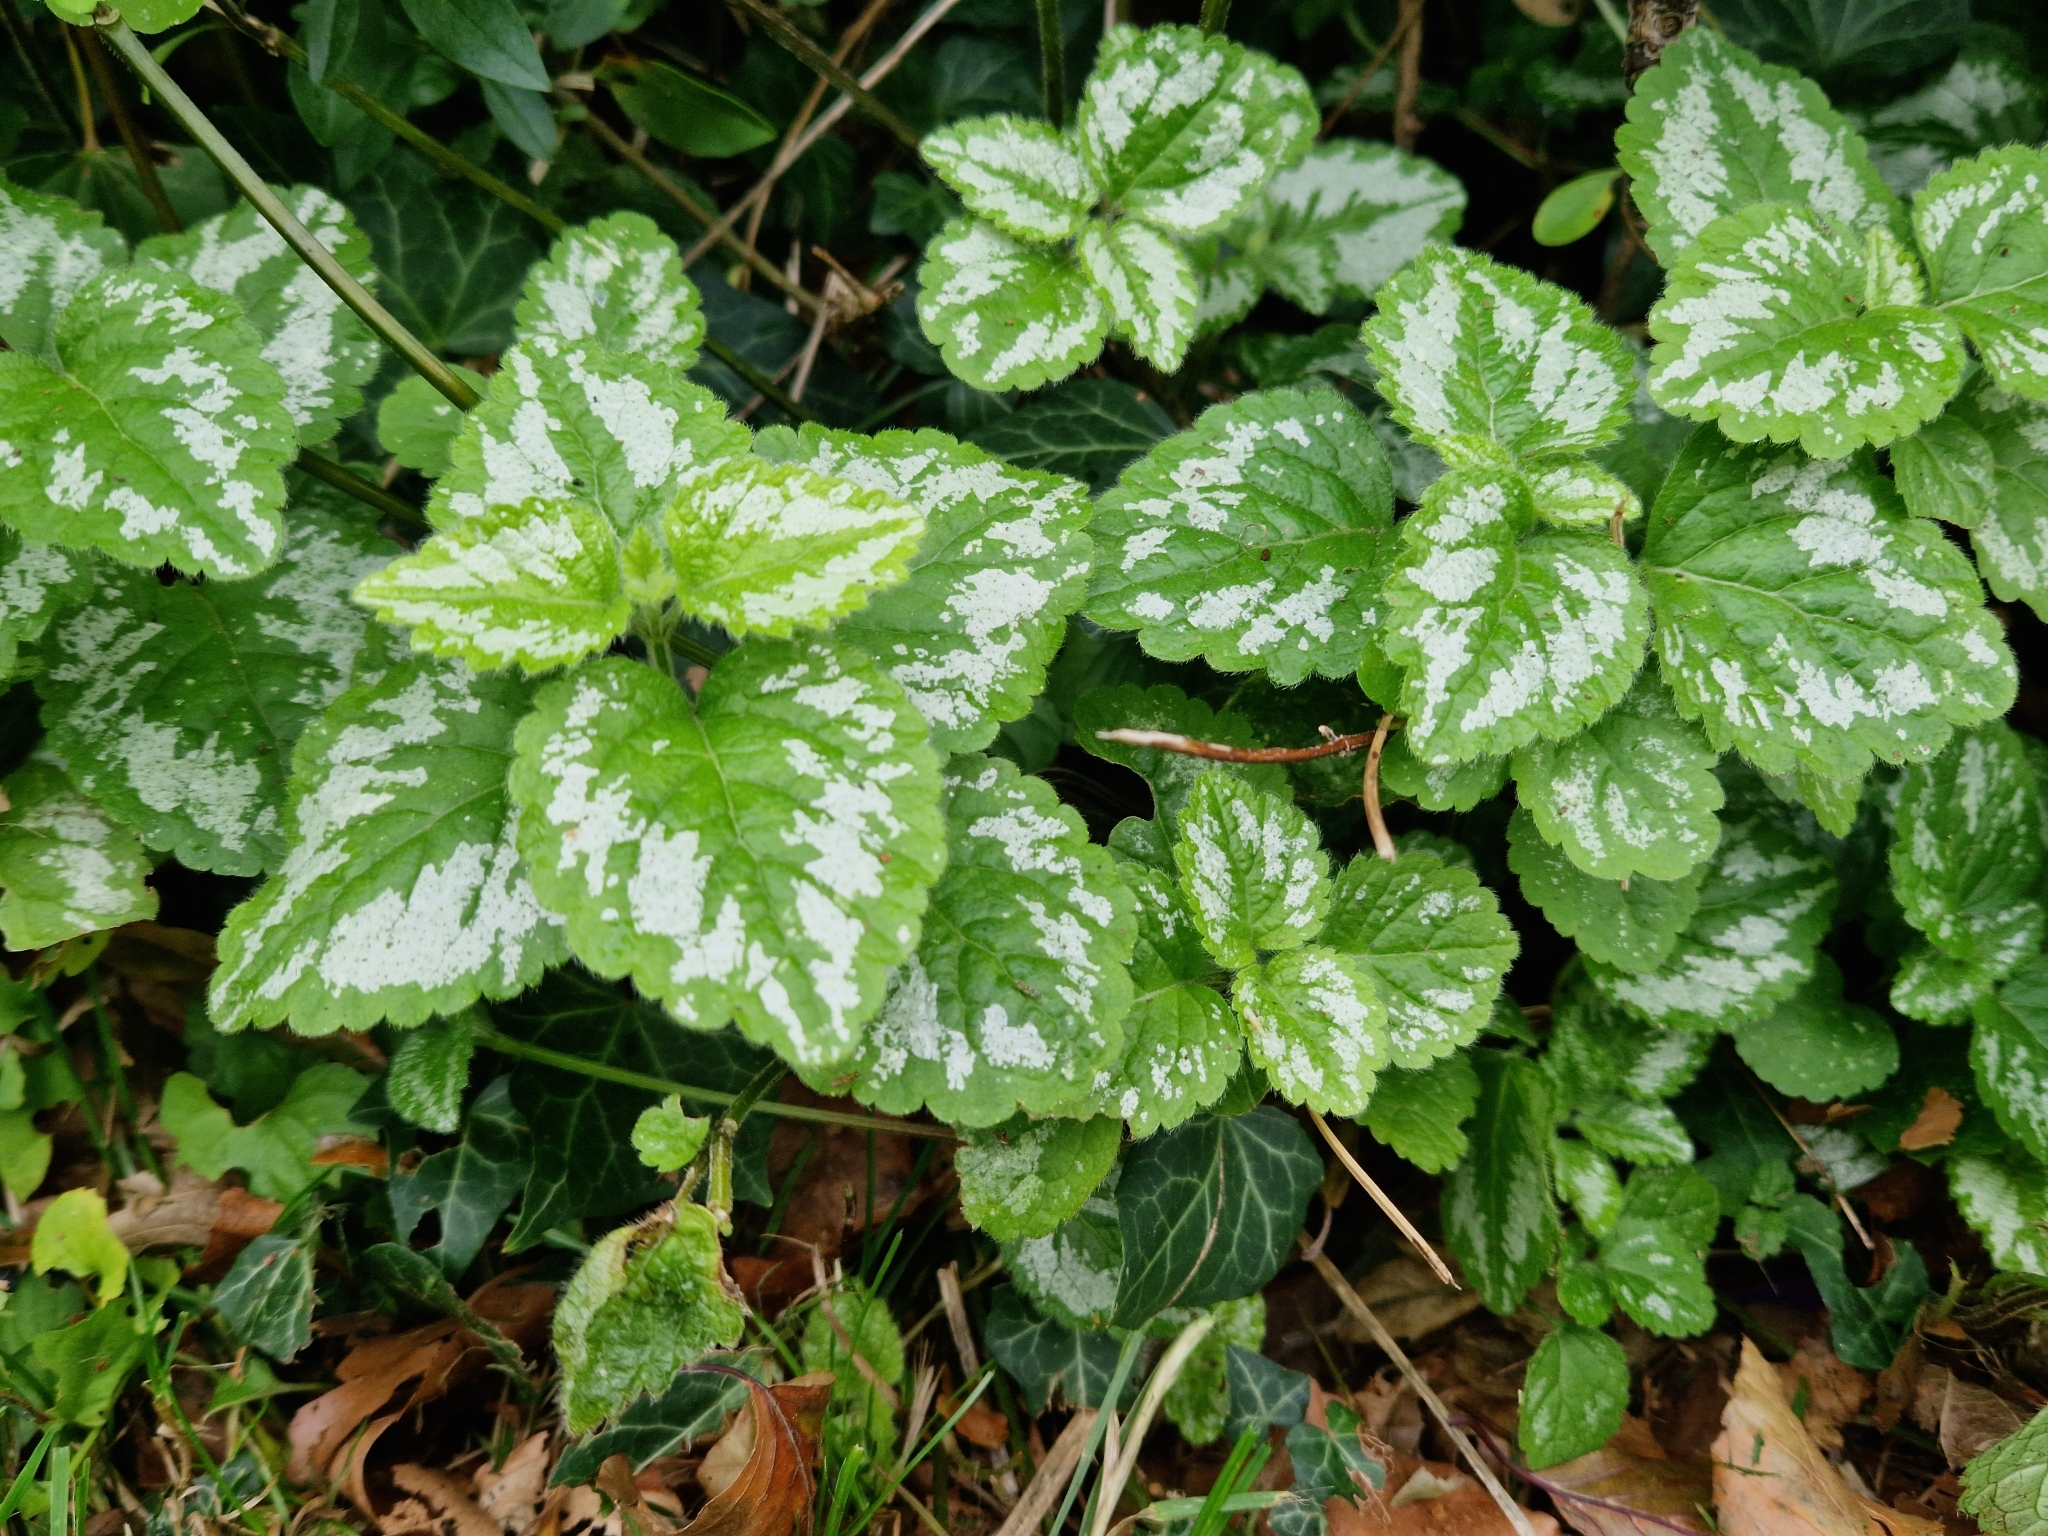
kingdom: Plantae
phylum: Tracheophyta
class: Magnoliopsida
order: Lamiales
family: Lamiaceae
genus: Lamium
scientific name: Lamium galeobdolon
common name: Yellow archangel
